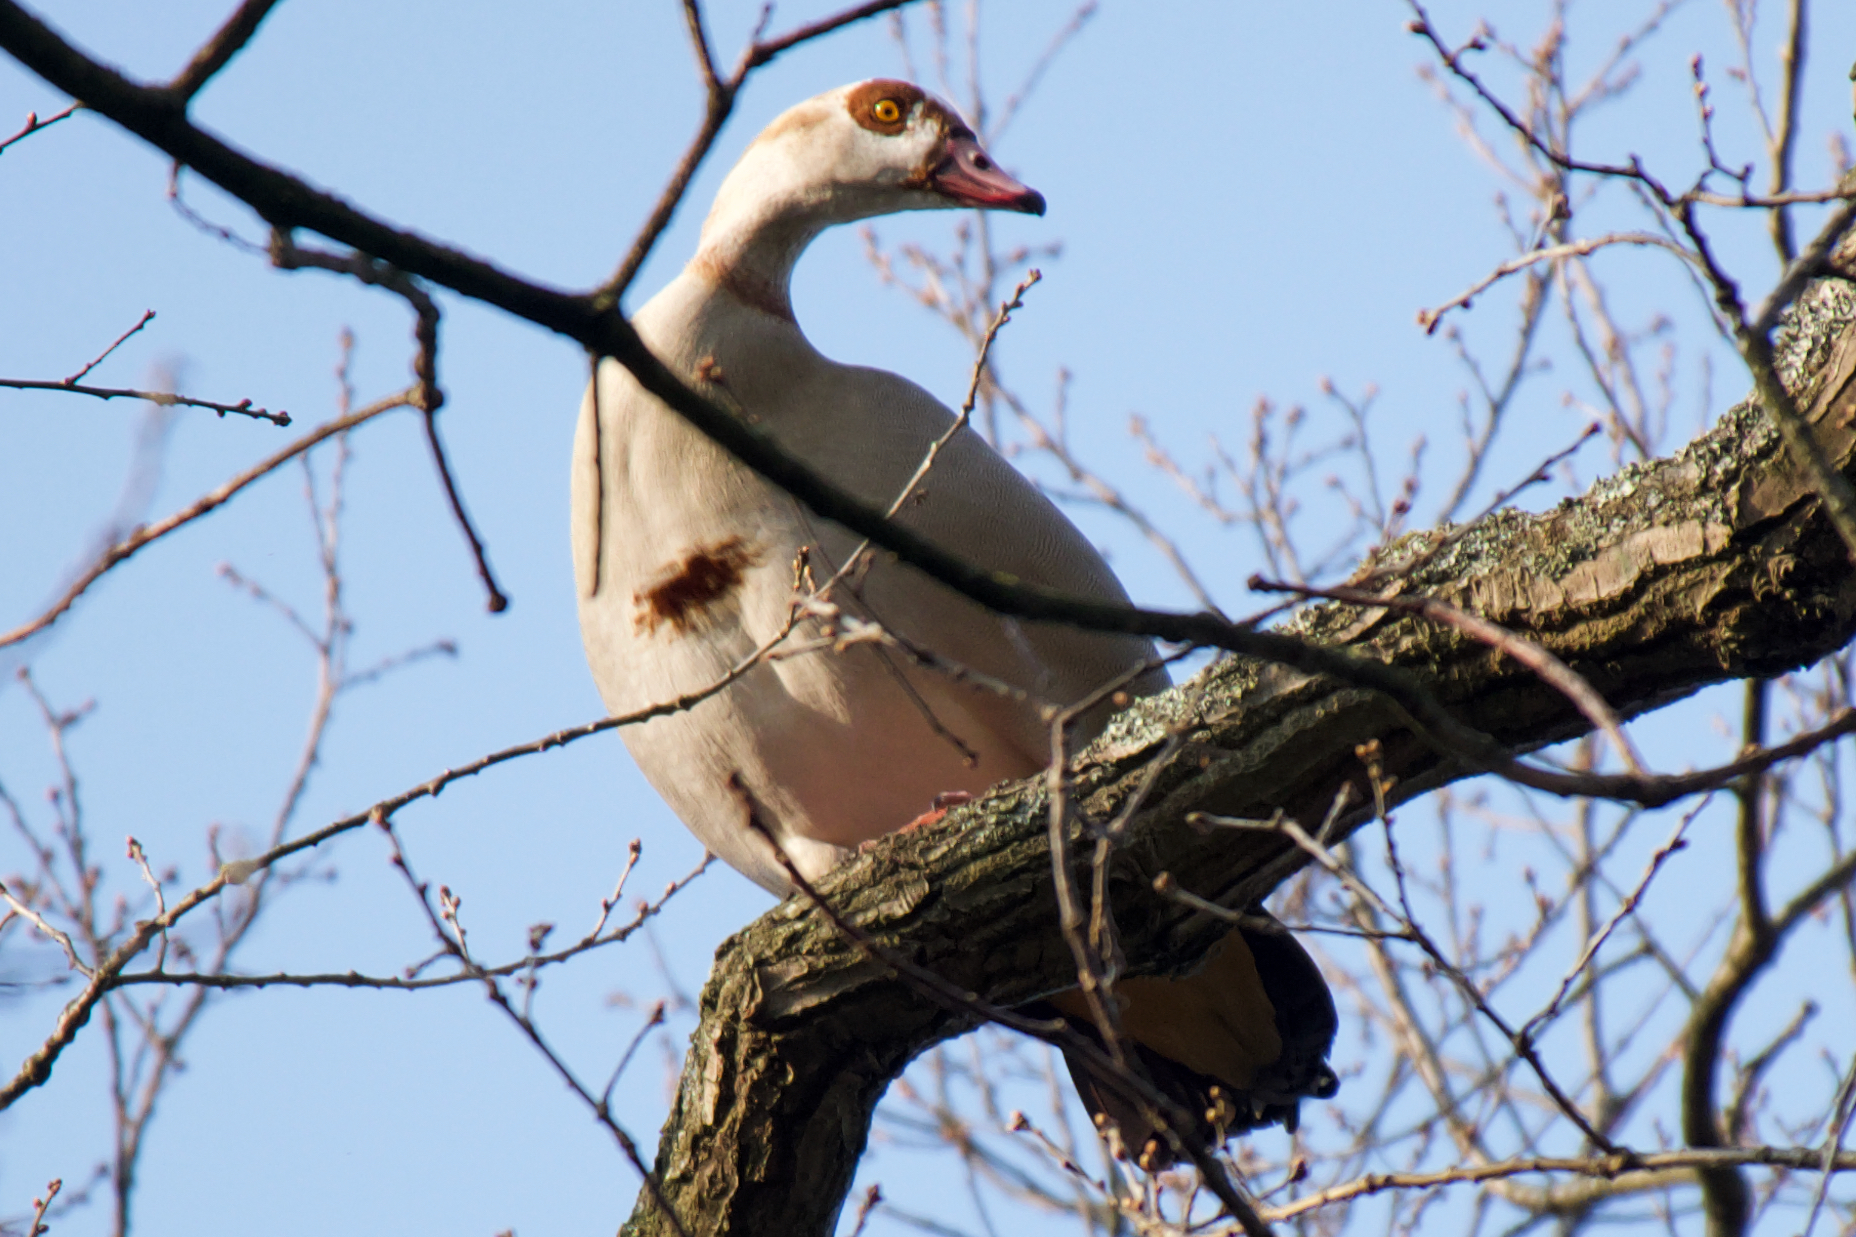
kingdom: Animalia
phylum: Chordata
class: Aves
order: Anseriformes
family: Anatidae
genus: Alopochen
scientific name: Alopochen aegyptiaca
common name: Egyptian goose
